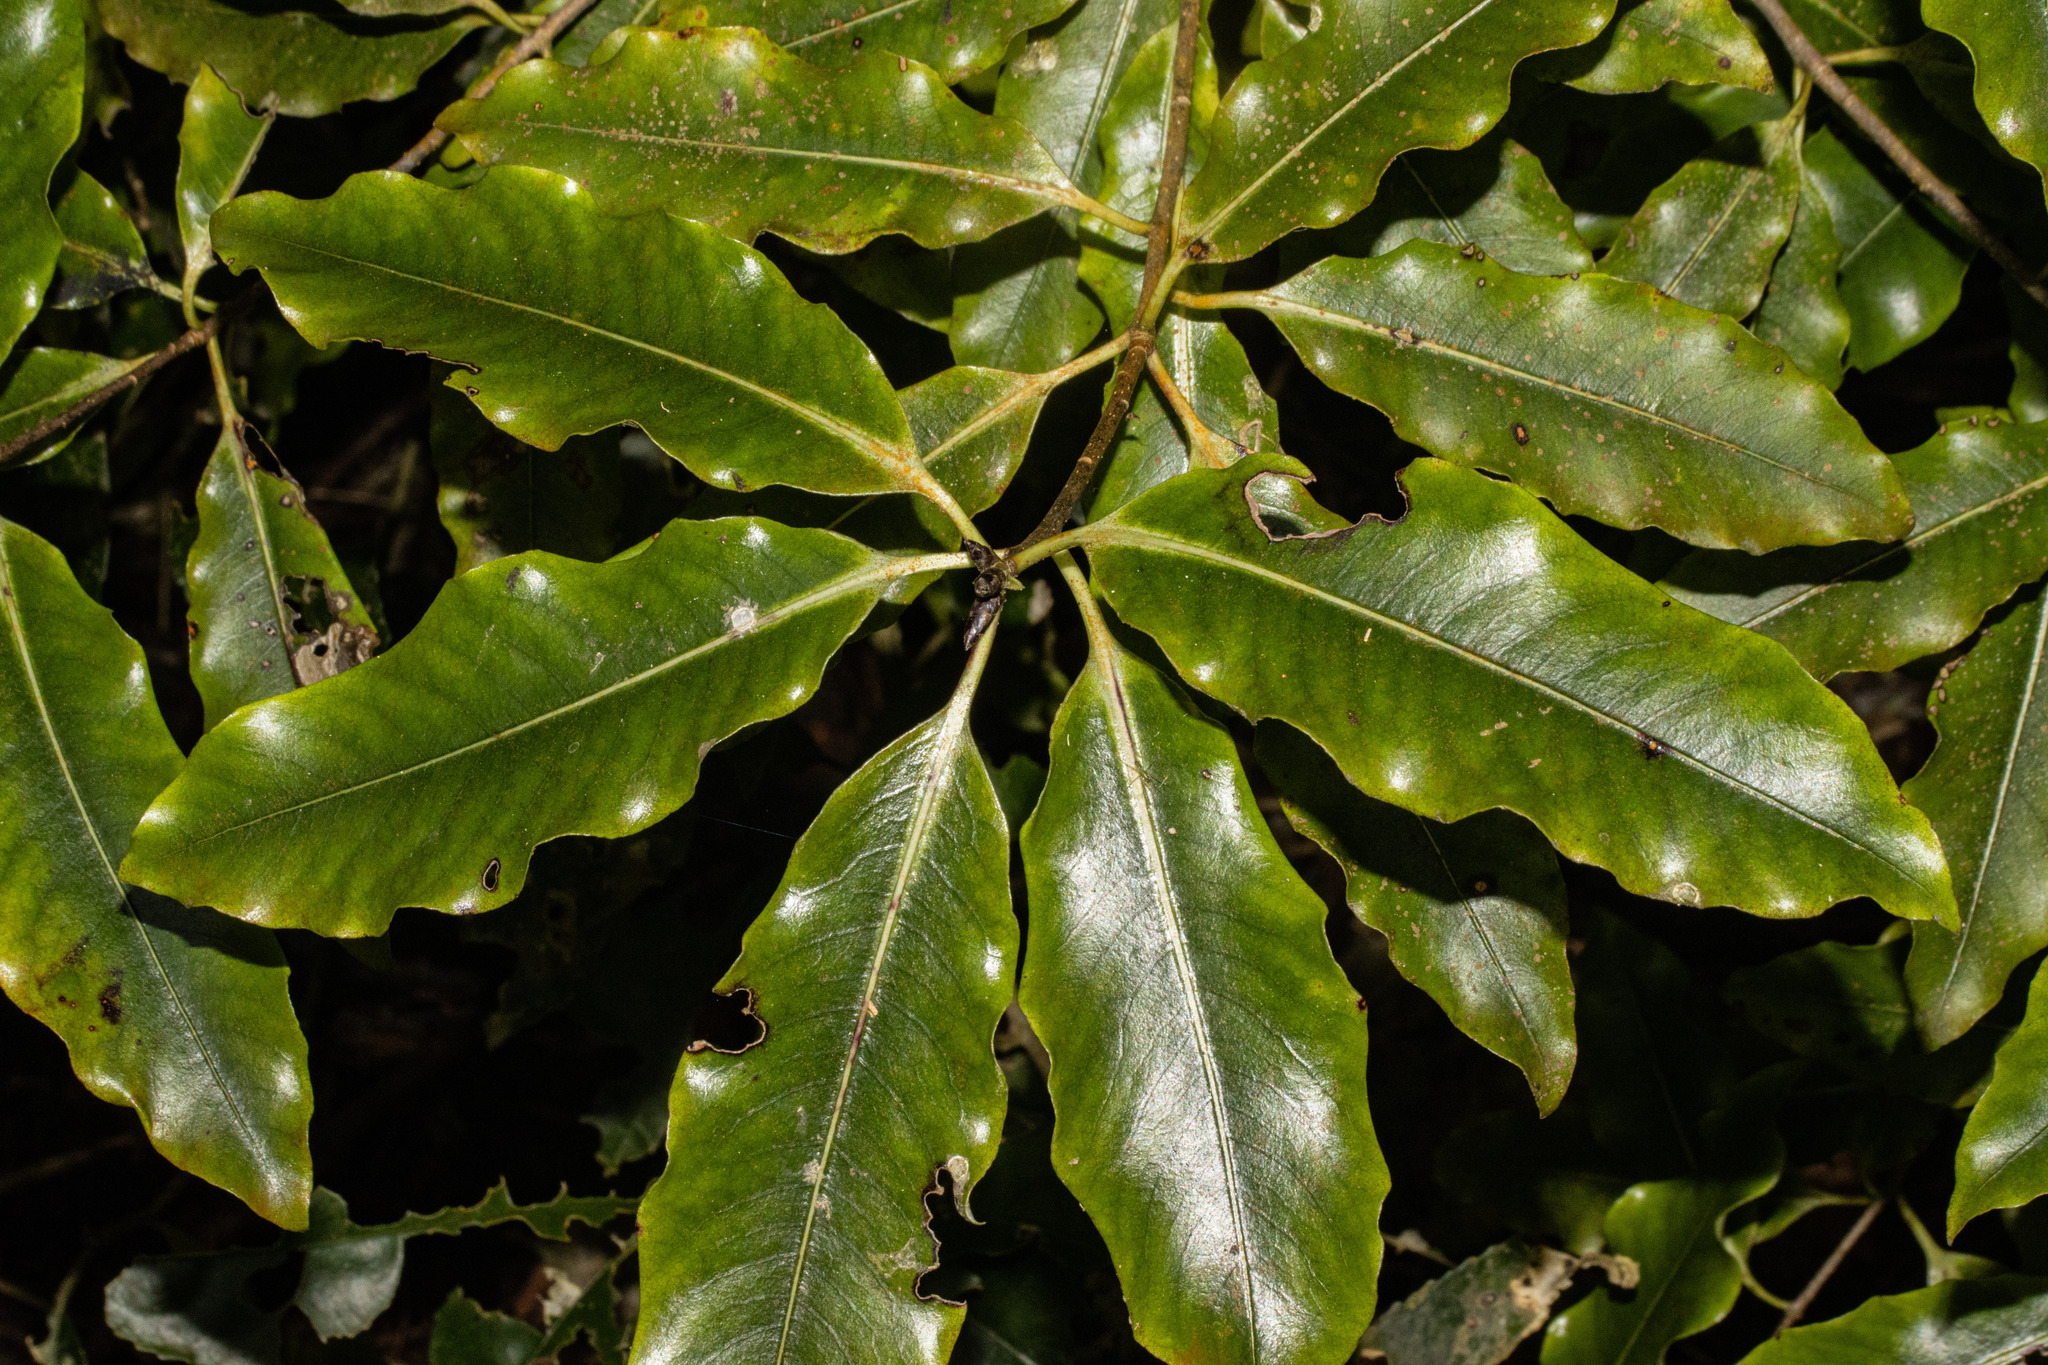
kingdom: Plantae
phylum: Tracheophyta
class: Magnoliopsida
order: Apiales
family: Pittosporaceae
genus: Pittosporum
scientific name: Pittosporum eugenioides
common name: Lemonwood
